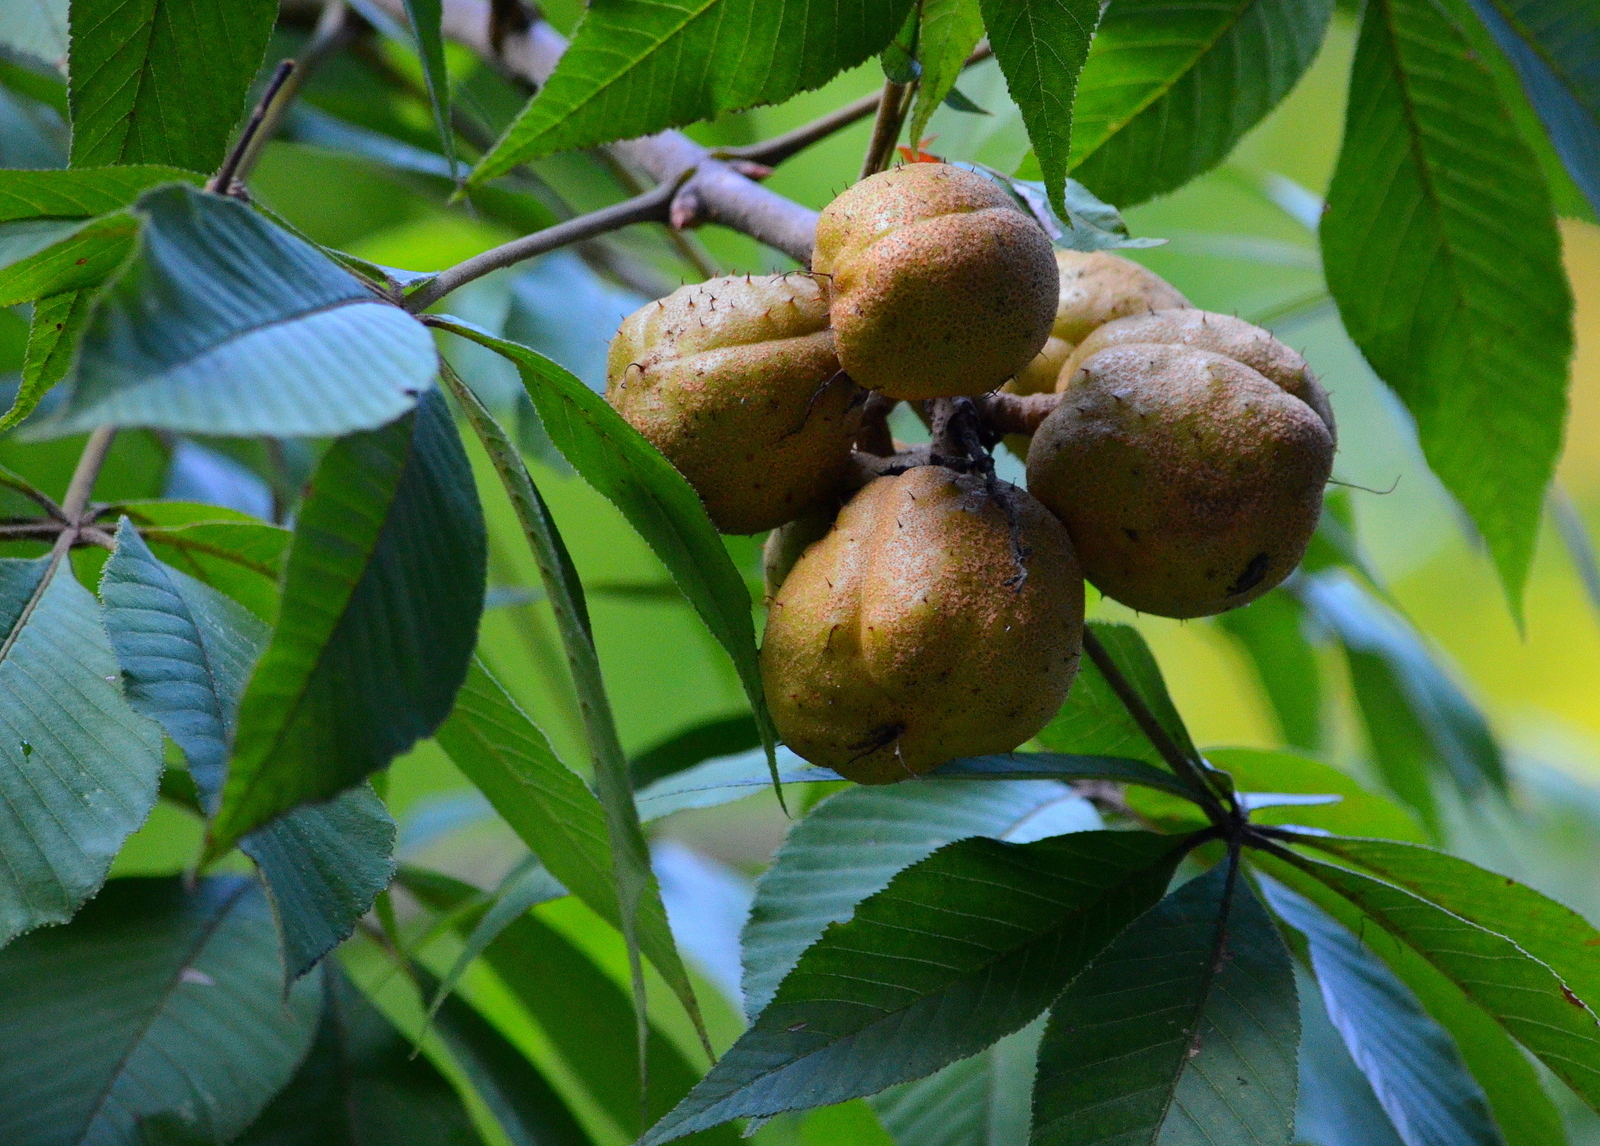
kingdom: Plantae
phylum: Tracheophyta
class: Magnoliopsida
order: Sapindales
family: Sapindaceae
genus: Aesculus
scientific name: Aesculus glabra
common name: Ohio buckeye
